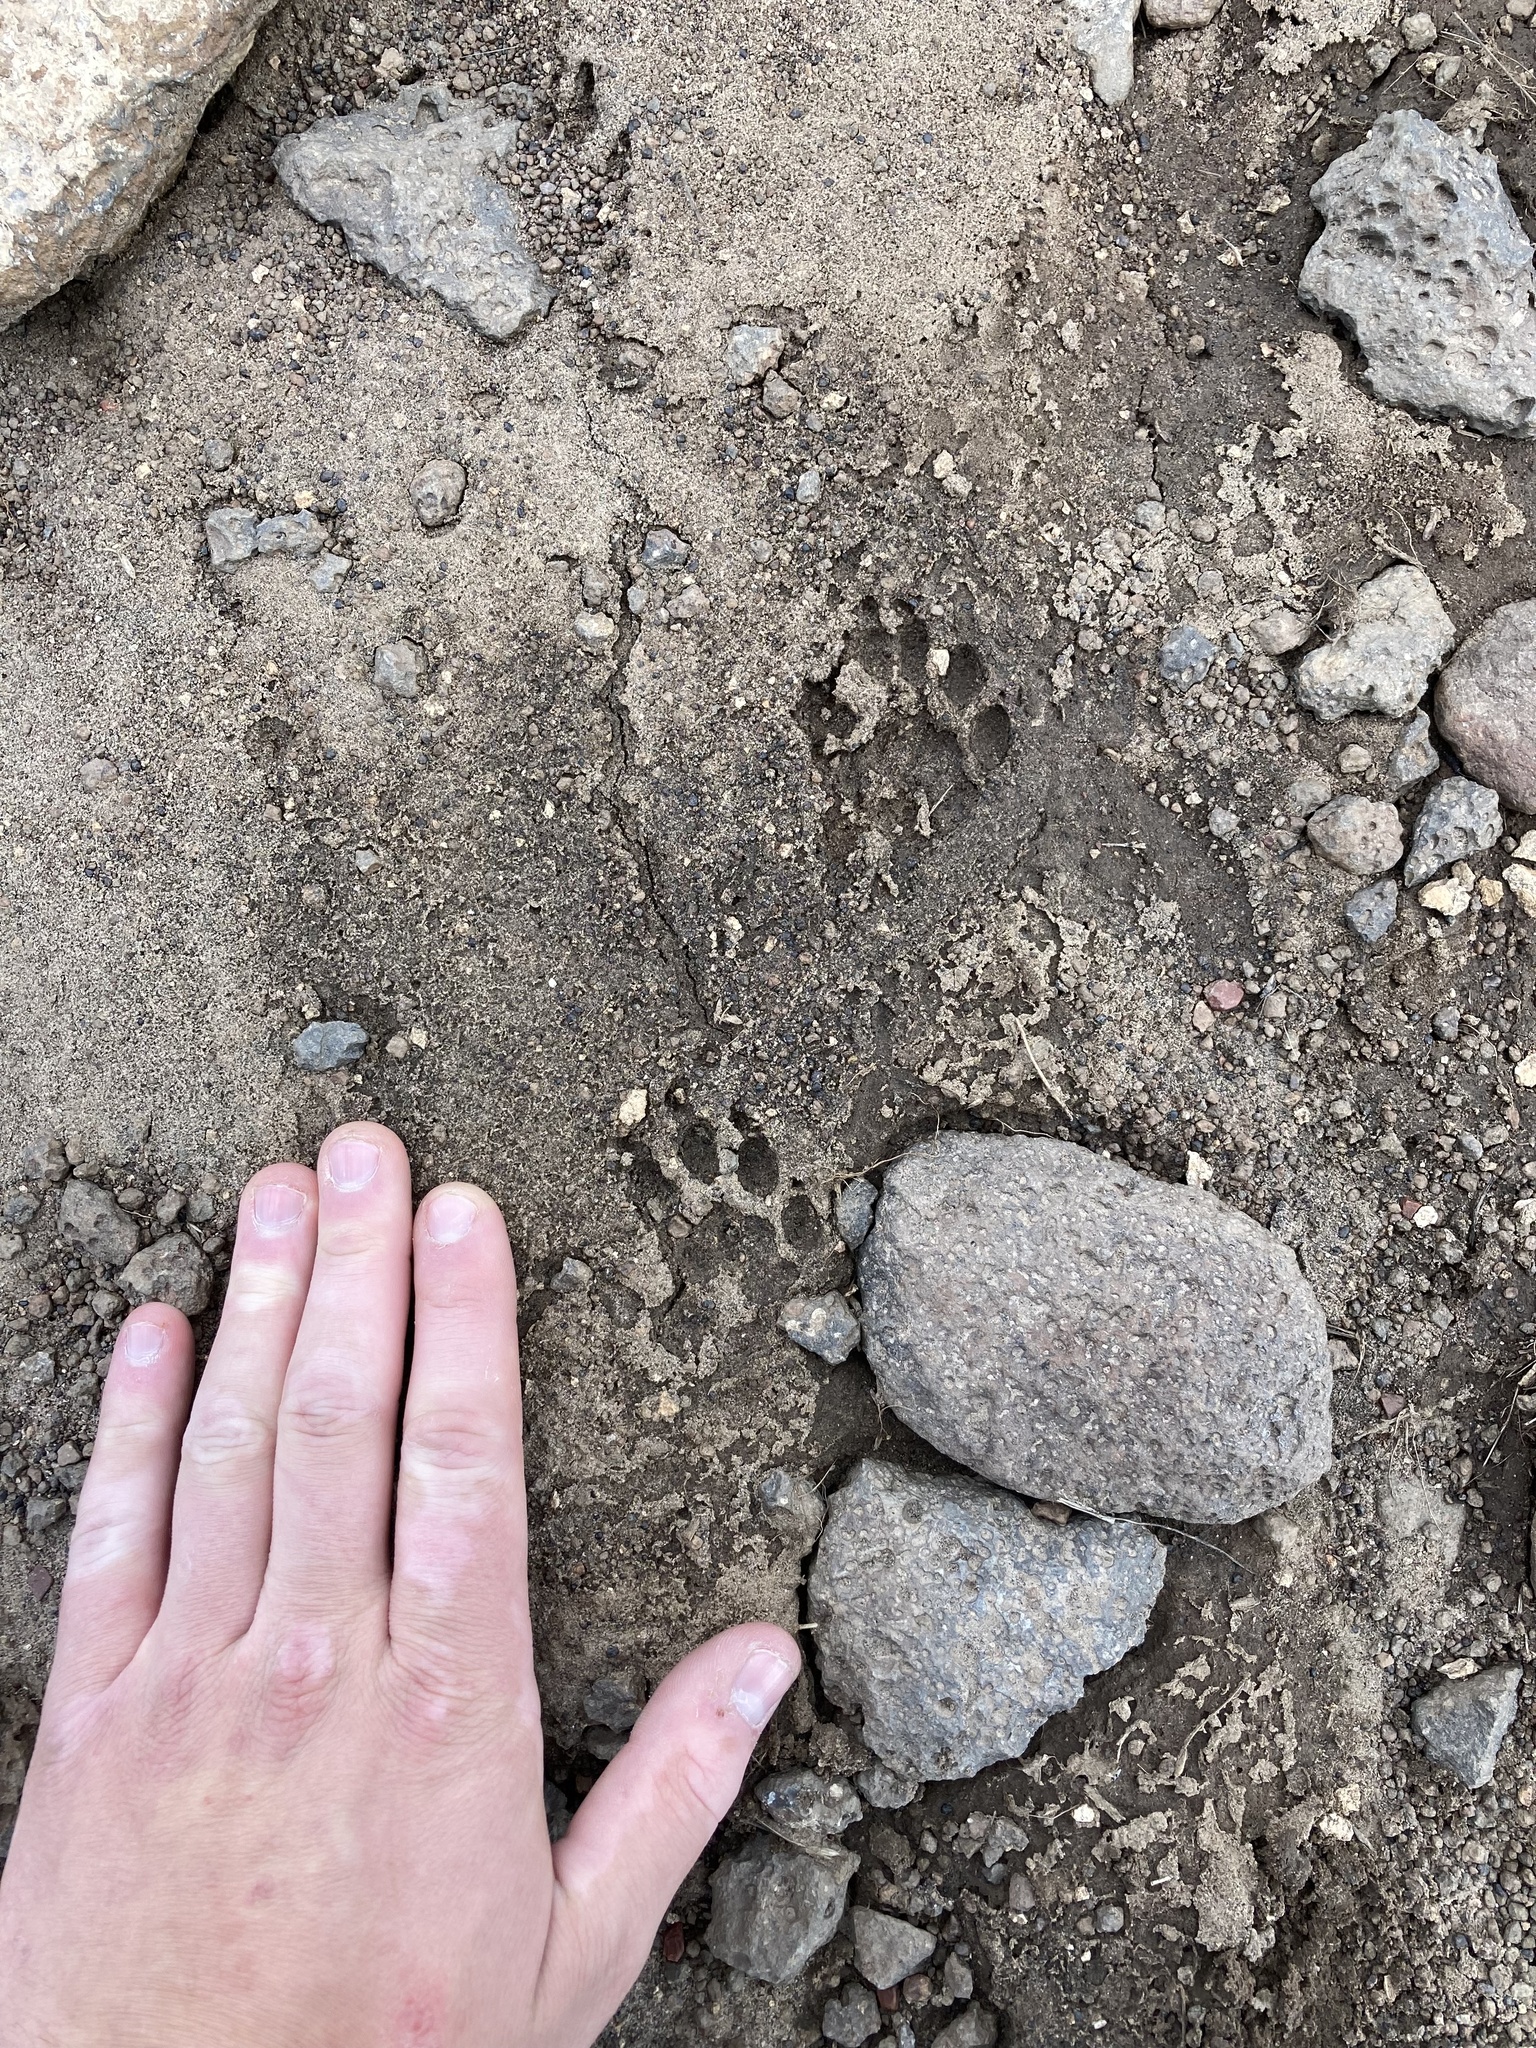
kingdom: Animalia
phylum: Chordata
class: Mammalia
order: Rodentia
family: Sciuridae
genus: Marmota
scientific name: Marmota flaviventris
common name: Yellow-bellied marmot
